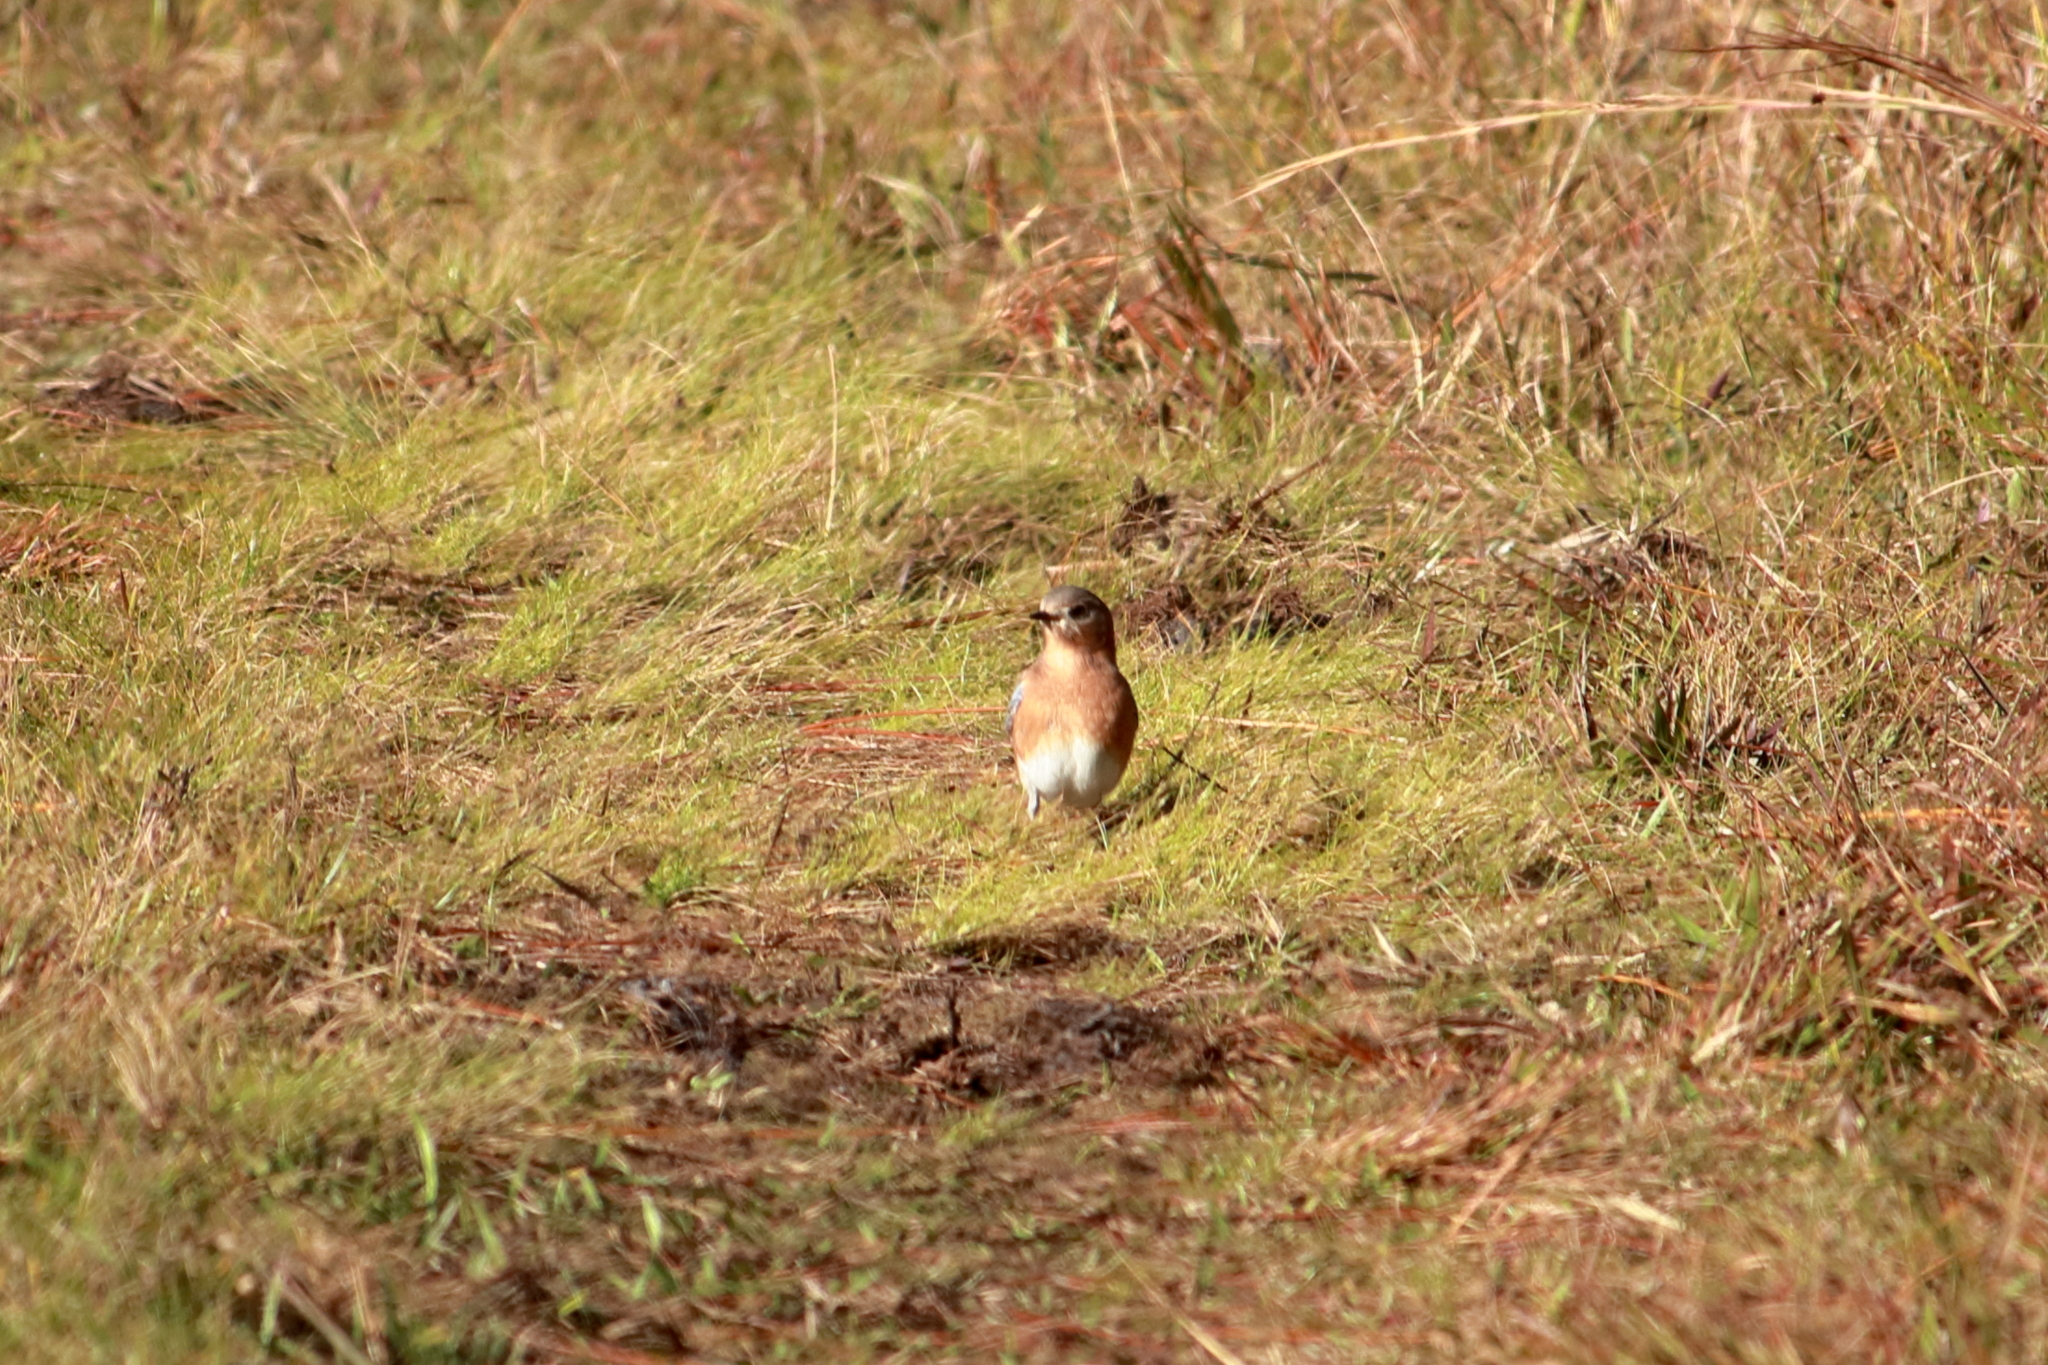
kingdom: Animalia
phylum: Chordata
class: Aves
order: Passeriformes
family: Turdidae
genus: Sialia
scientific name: Sialia sialis
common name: Eastern bluebird
